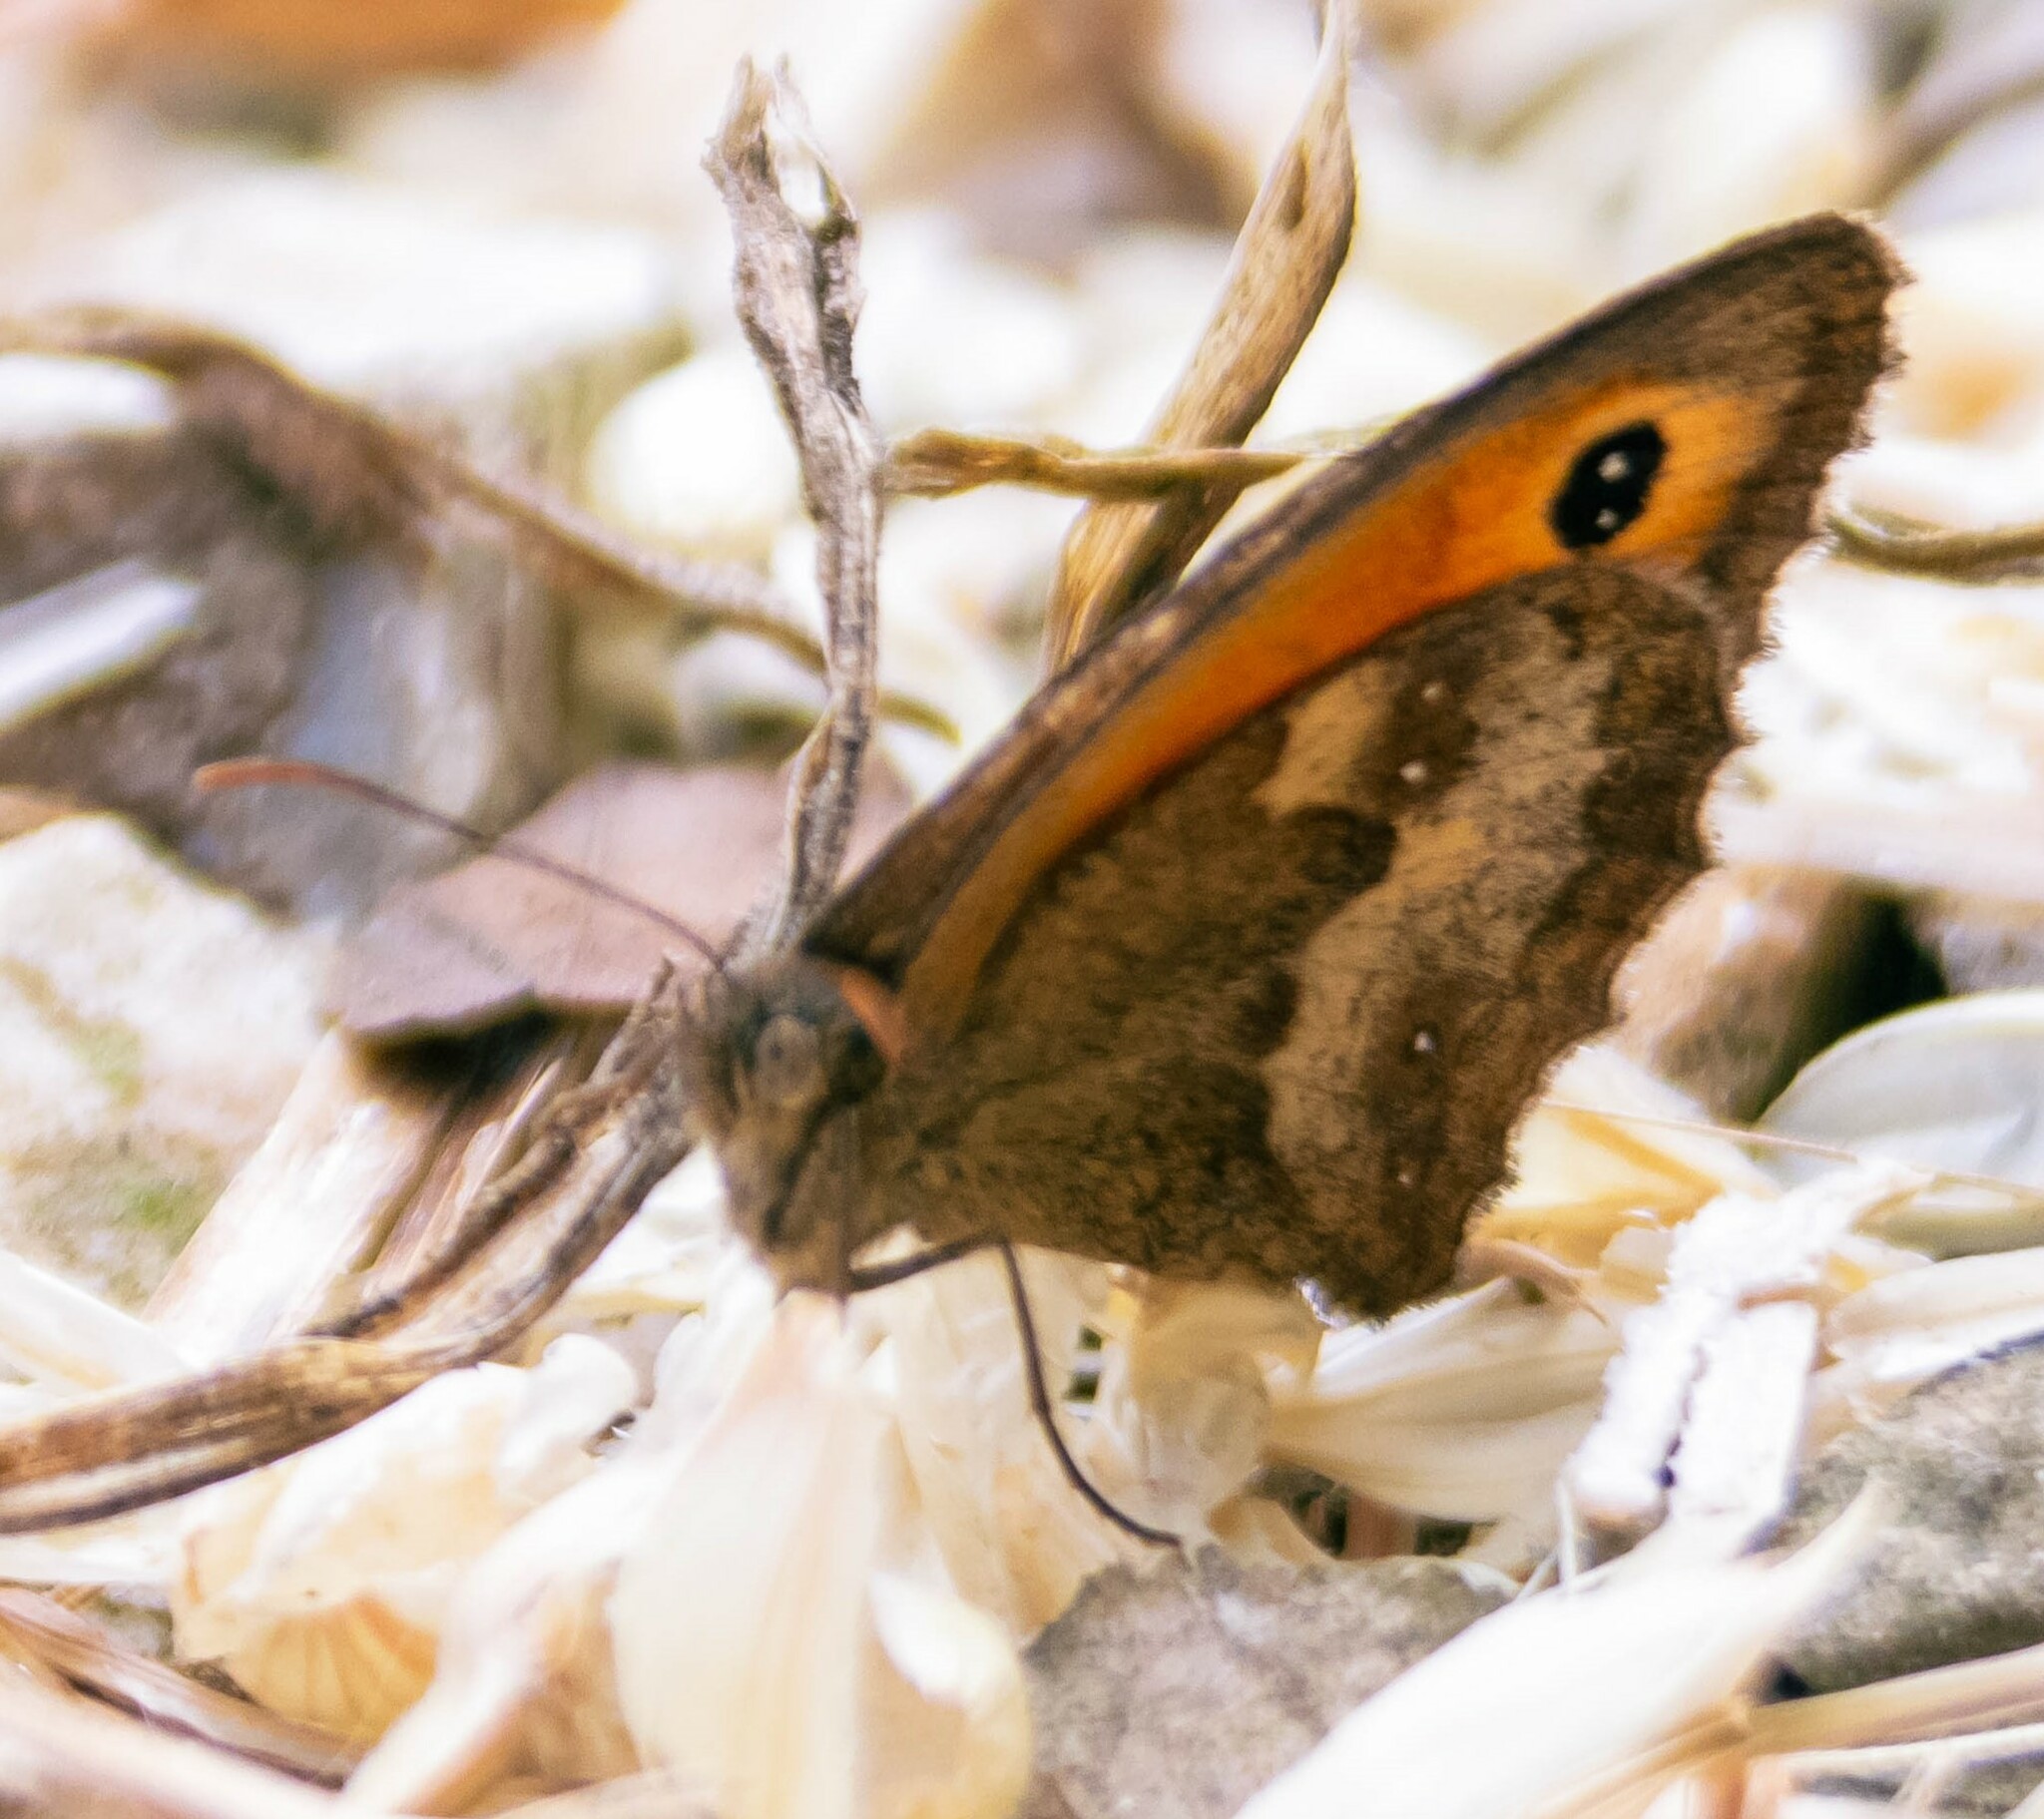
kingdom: Animalia
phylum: Arthropoda
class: Insecta
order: Lepidoptera
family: Nymphalidae
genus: Pyronia
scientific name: Pyronia tithonus
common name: Gatekeeper
